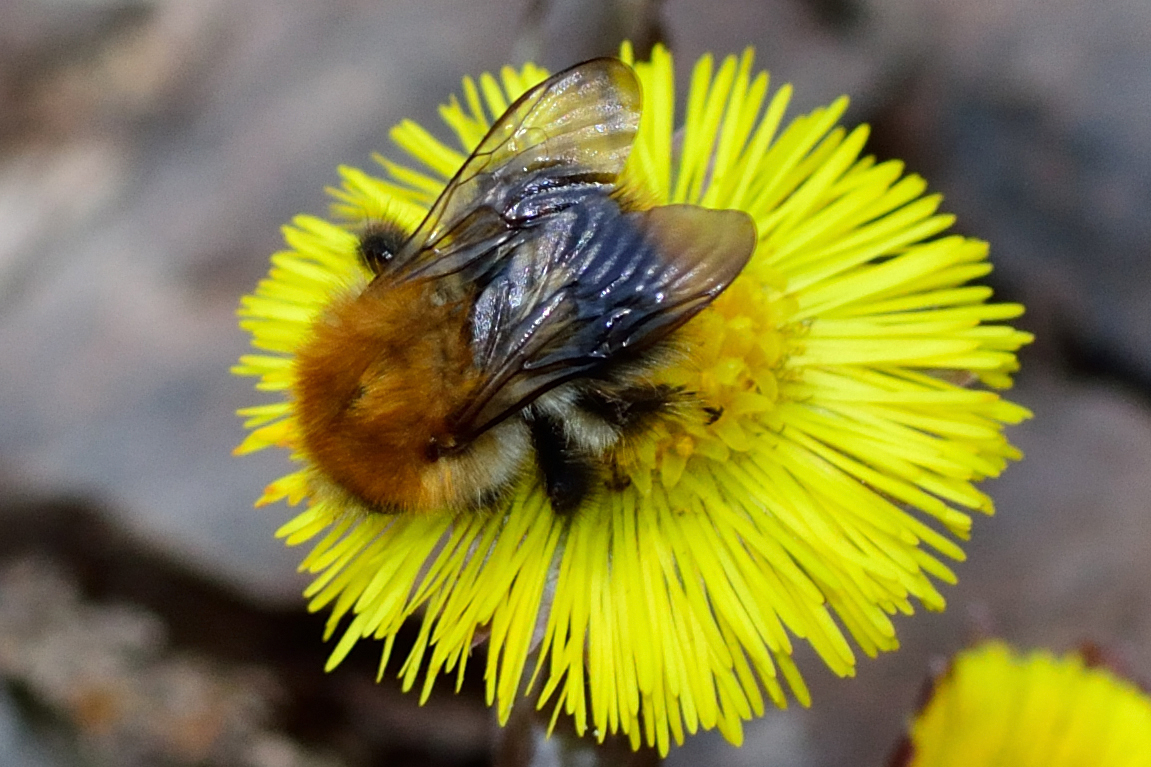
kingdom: Animalia
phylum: Arthropoda
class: Insecta
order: Hymenoptera
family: Apidae
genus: Bombus
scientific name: Bombus pascuorum
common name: Common carder bee
